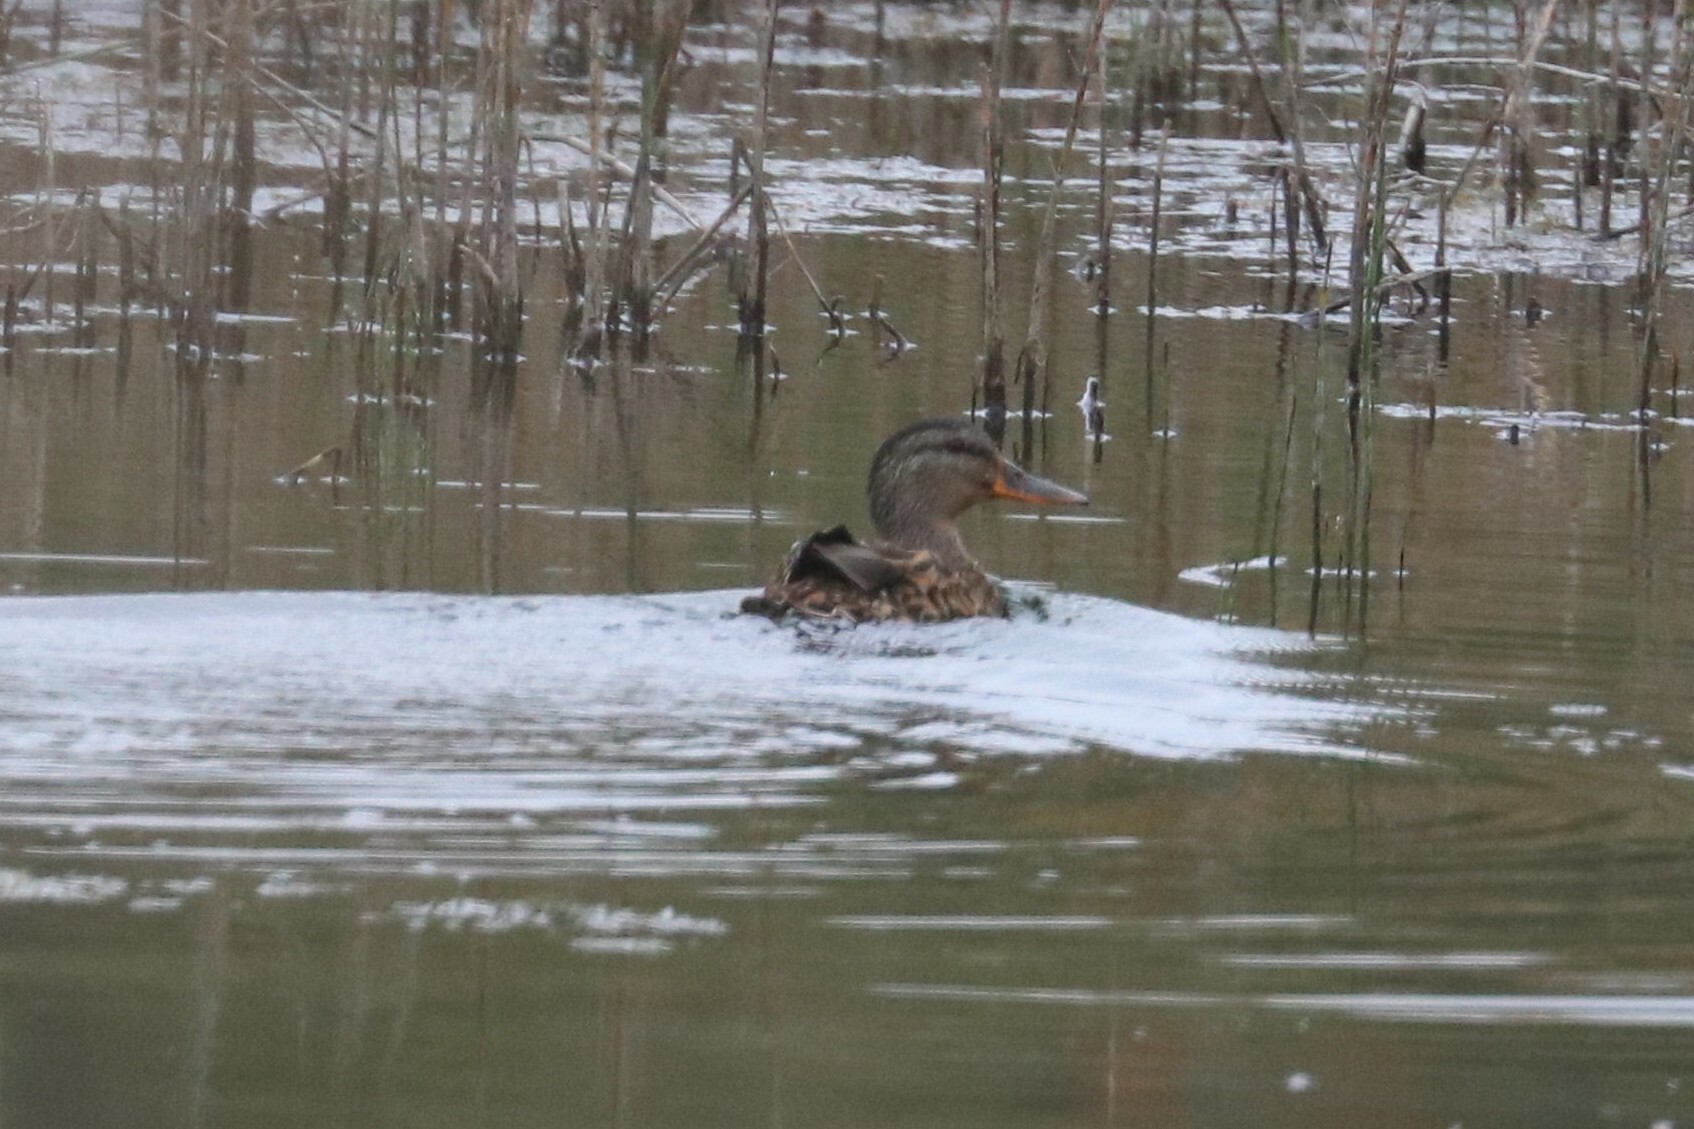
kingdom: Animalia
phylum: Chordata
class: Aves
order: Anseriformes
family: Anatidae
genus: Anas
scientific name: Anas platyrhynchos
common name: Mallard
